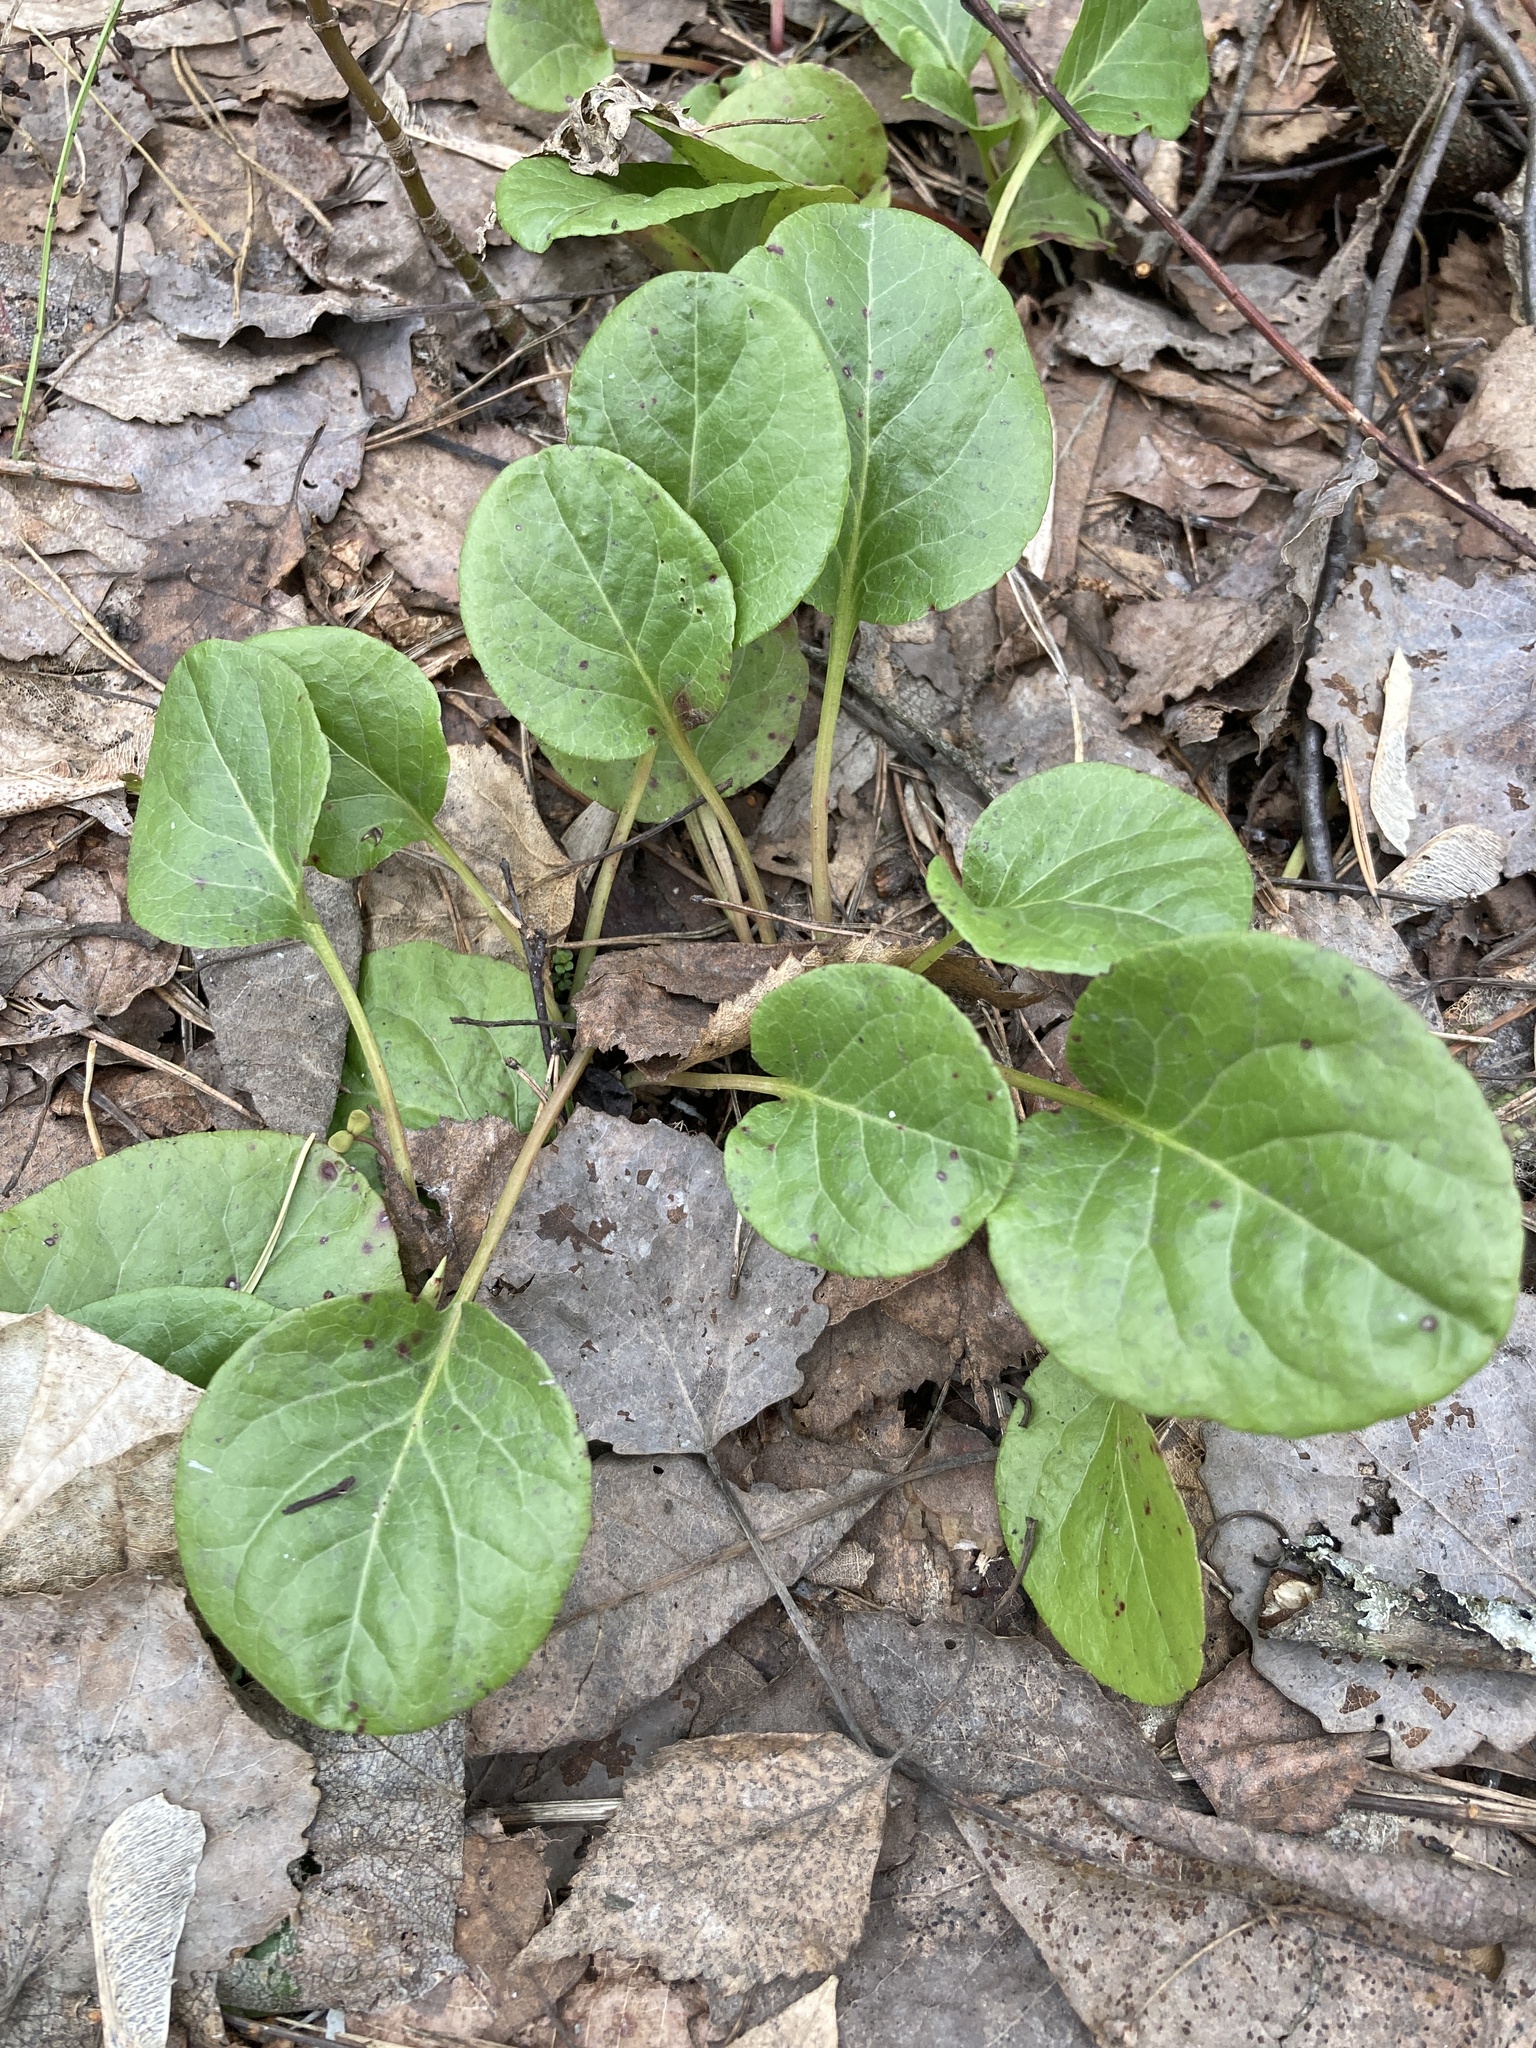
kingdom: Plantae
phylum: Tracheophyta
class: Magnoliopsida
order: Ericales
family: Ericaceae
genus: Pyrola
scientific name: Pyrola rotundifolia
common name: Round-leaved wintergreen
